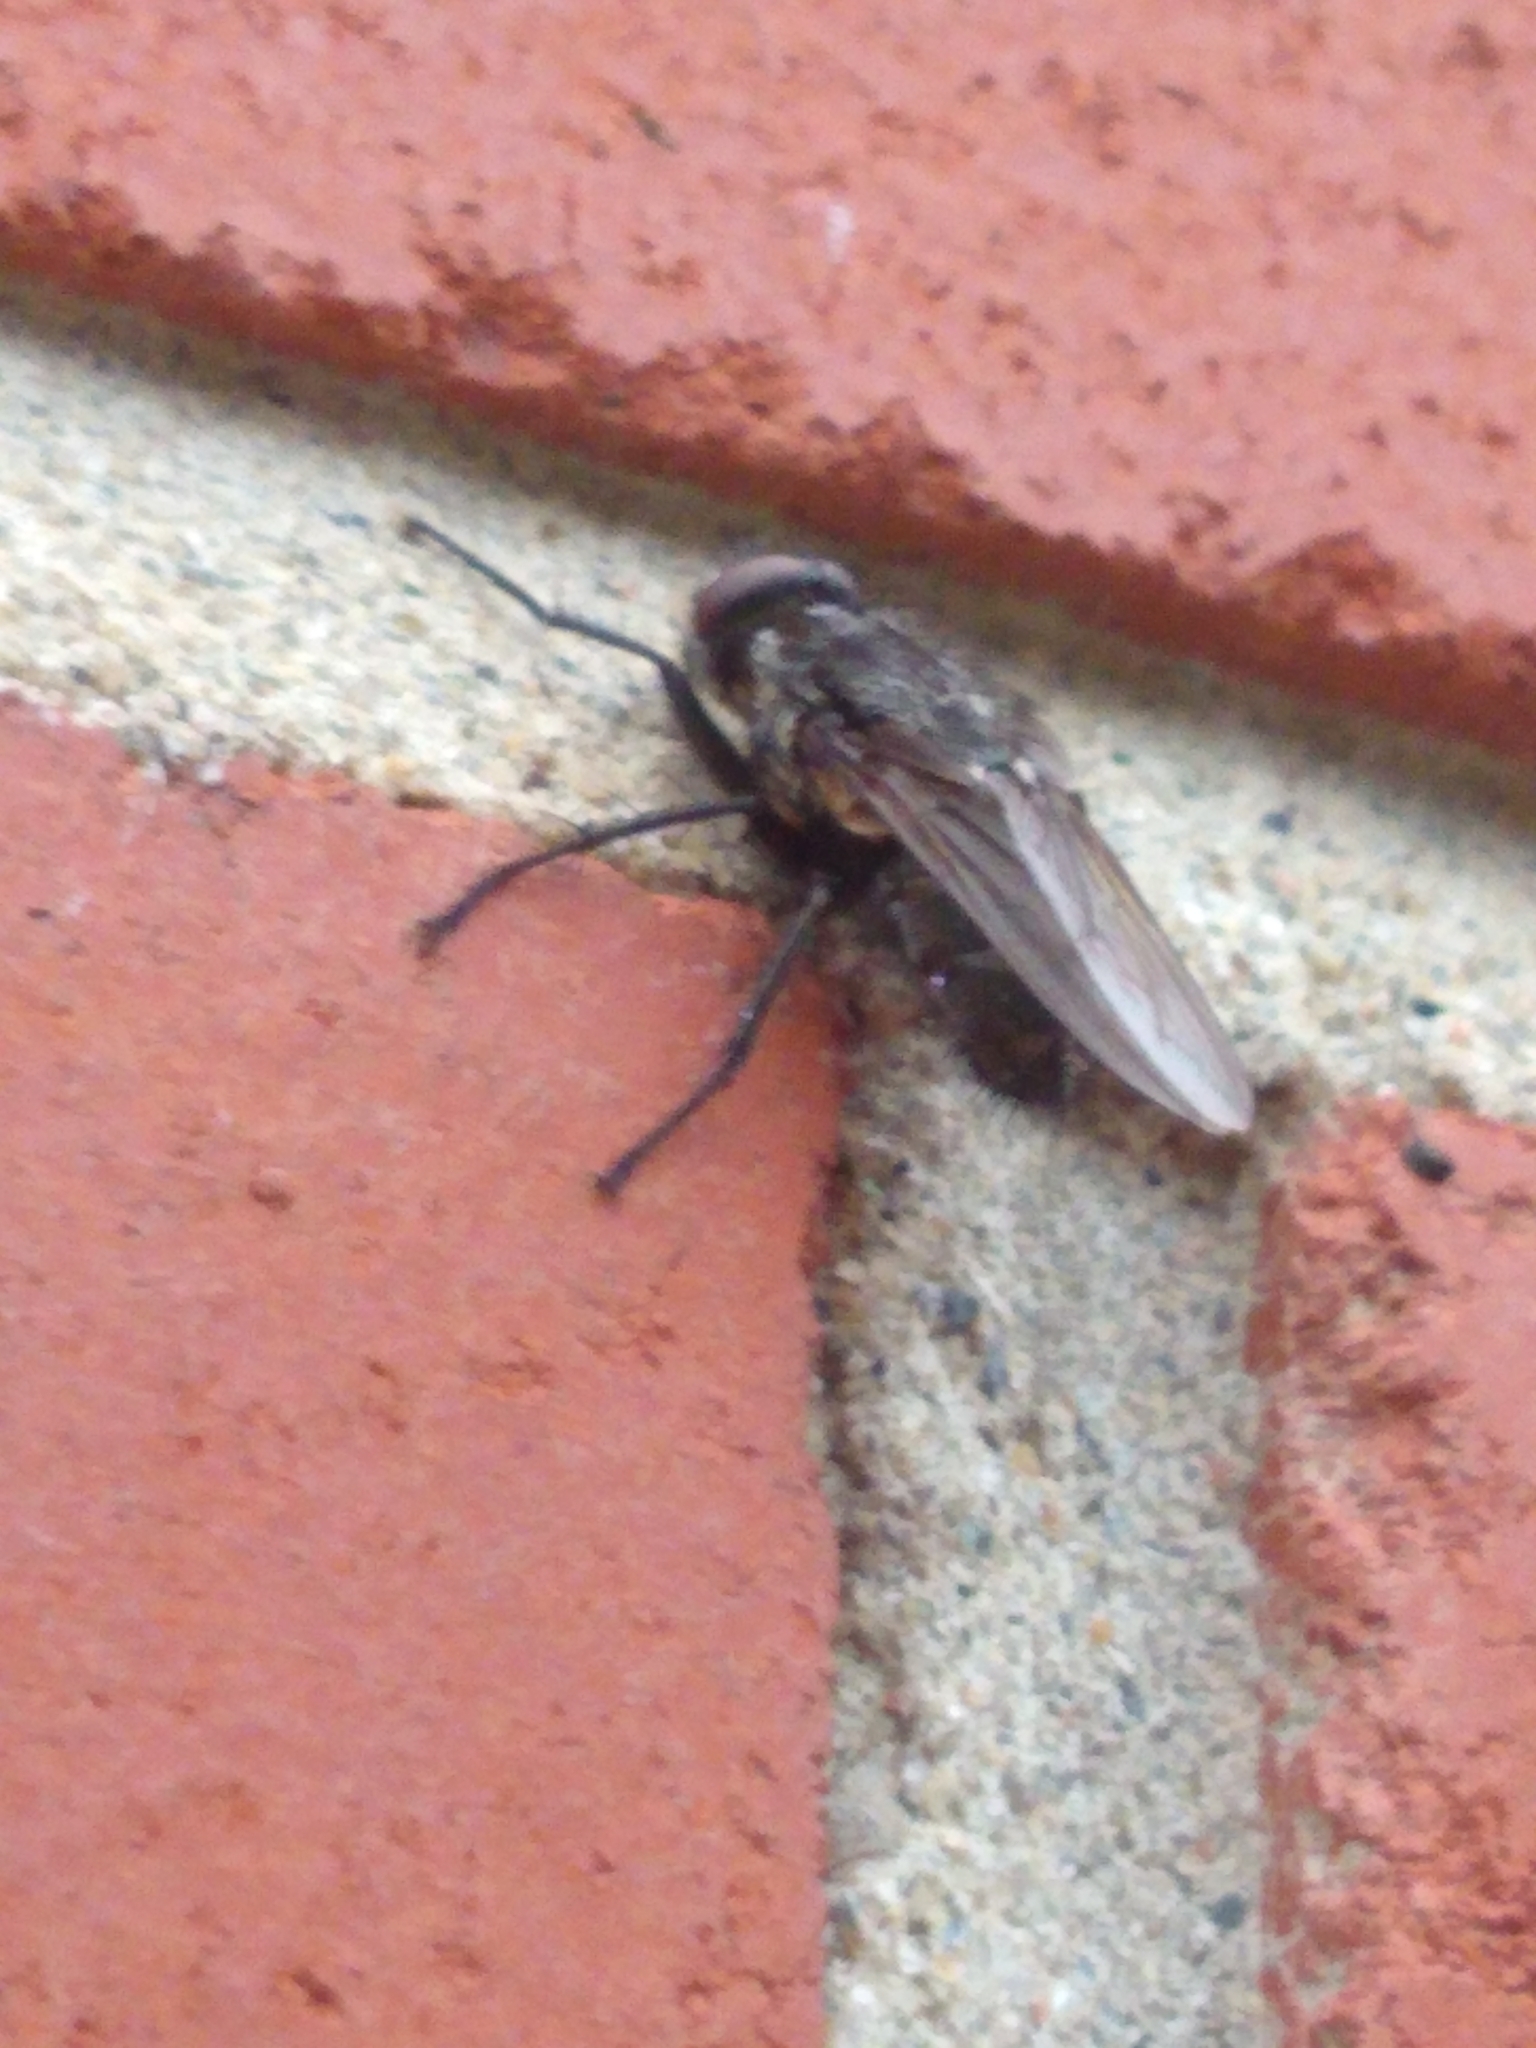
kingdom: Animalia
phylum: Arthropoda
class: Insecta
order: Diptera
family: Polleniidae
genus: Pollenia
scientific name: Pollenia vagabunda
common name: Vagabund cluster fly
